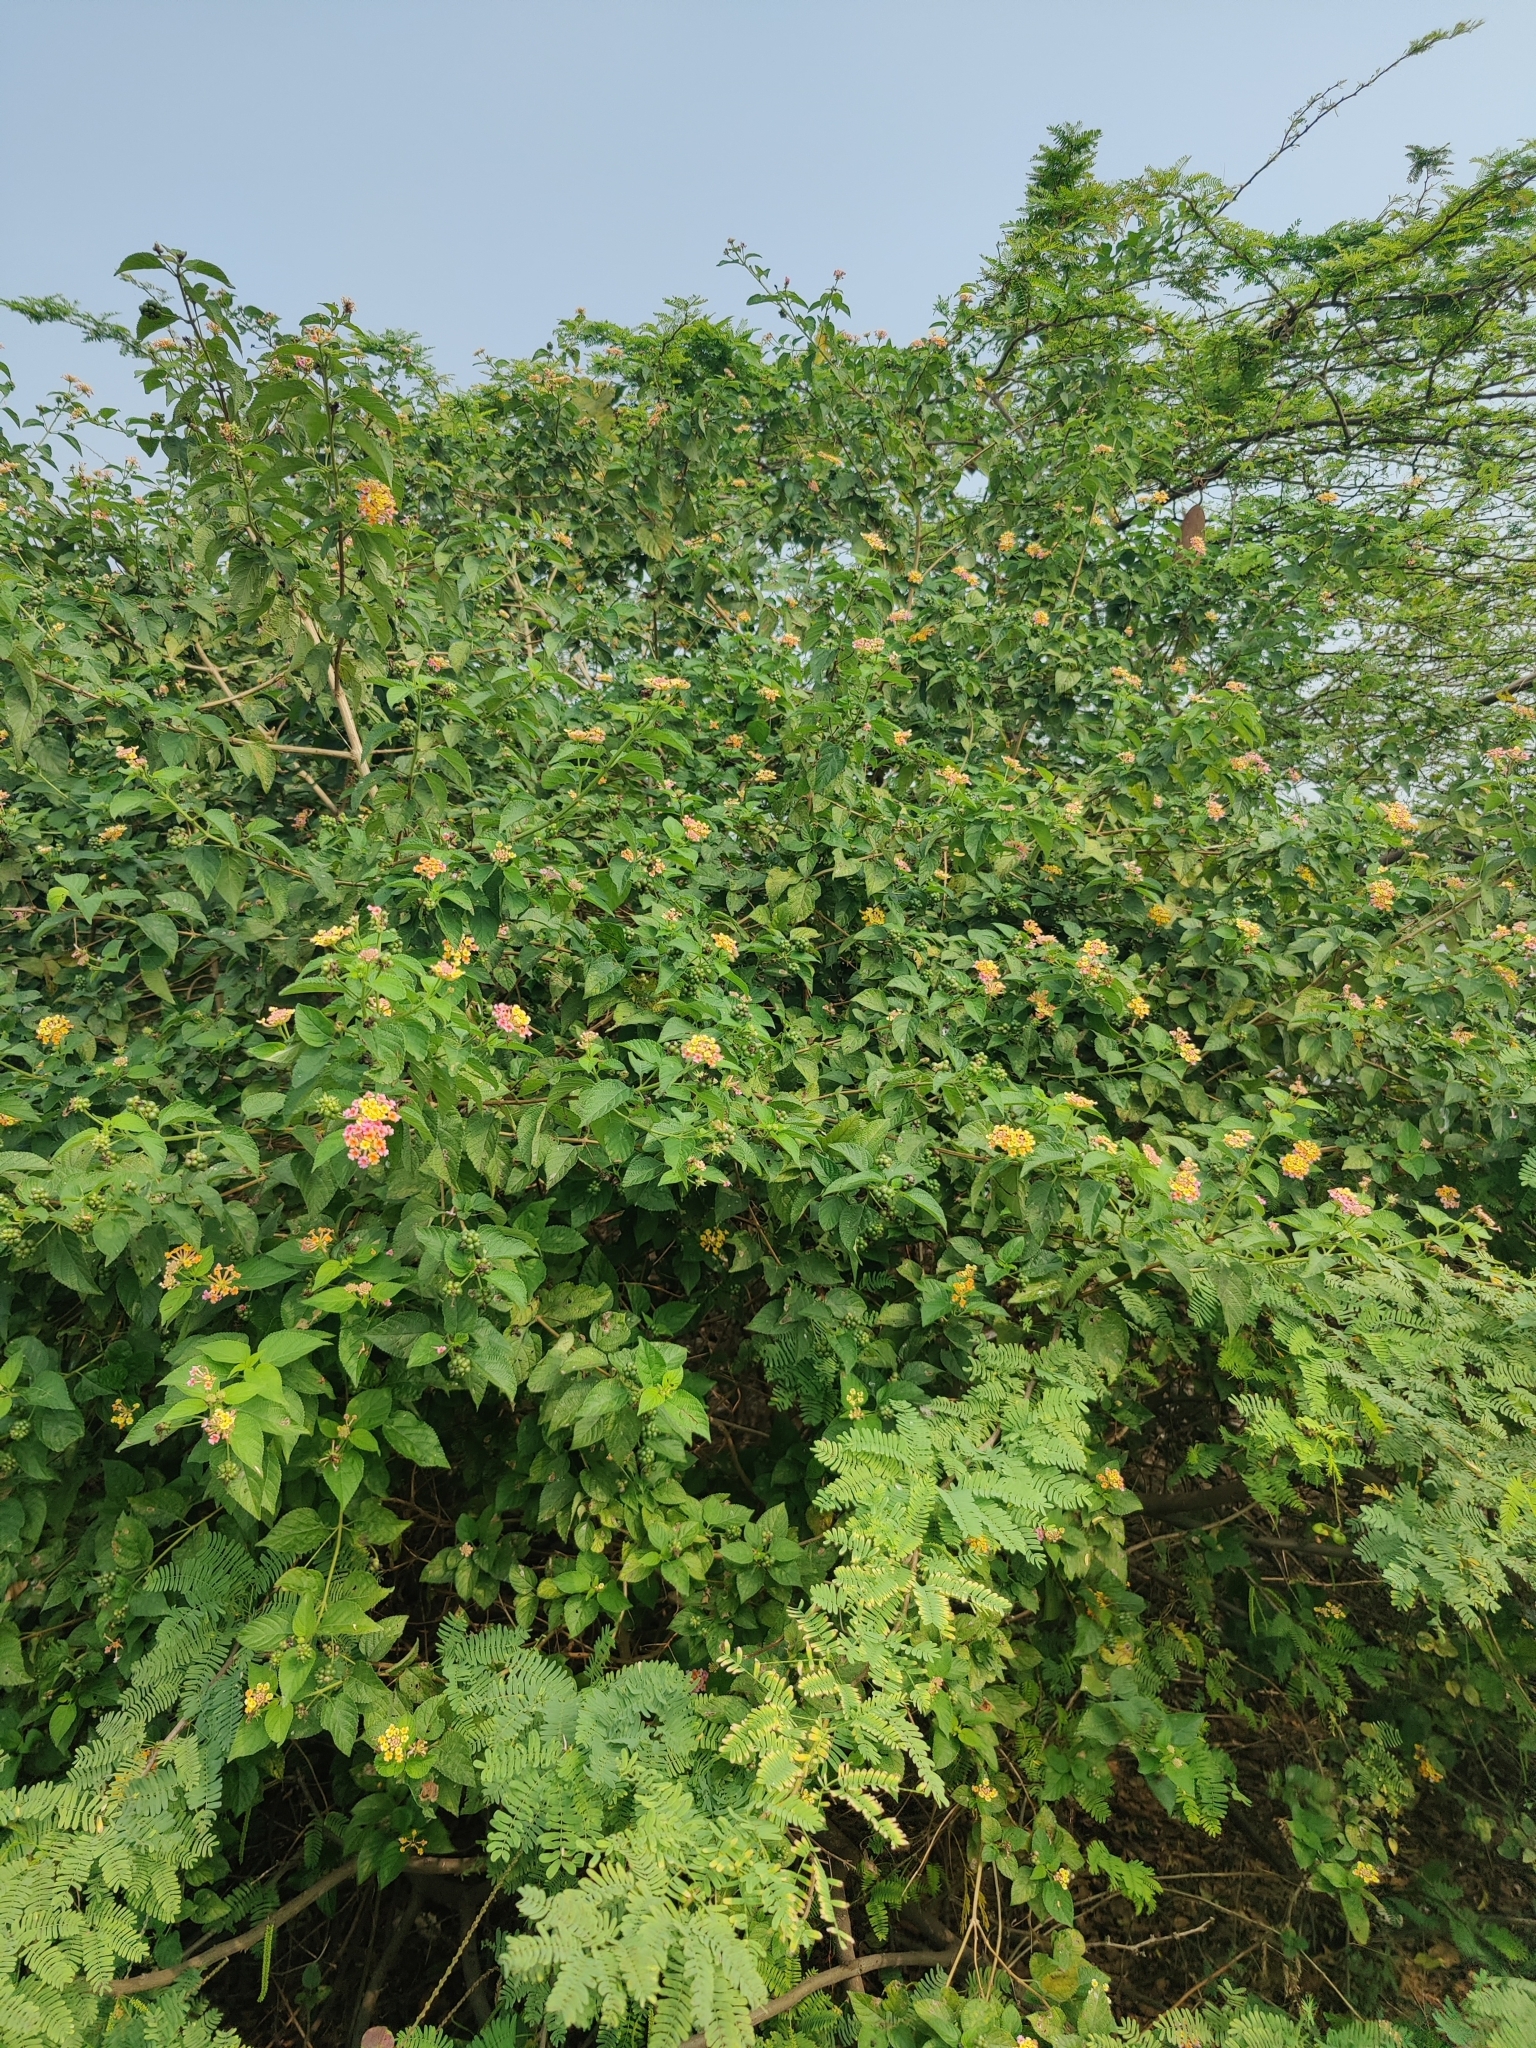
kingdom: Plantae
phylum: Tracheophyta
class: Magnoliopsida
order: Lamiales
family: Verbenaceae
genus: Lantana
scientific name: Lantana camara
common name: Lantana
